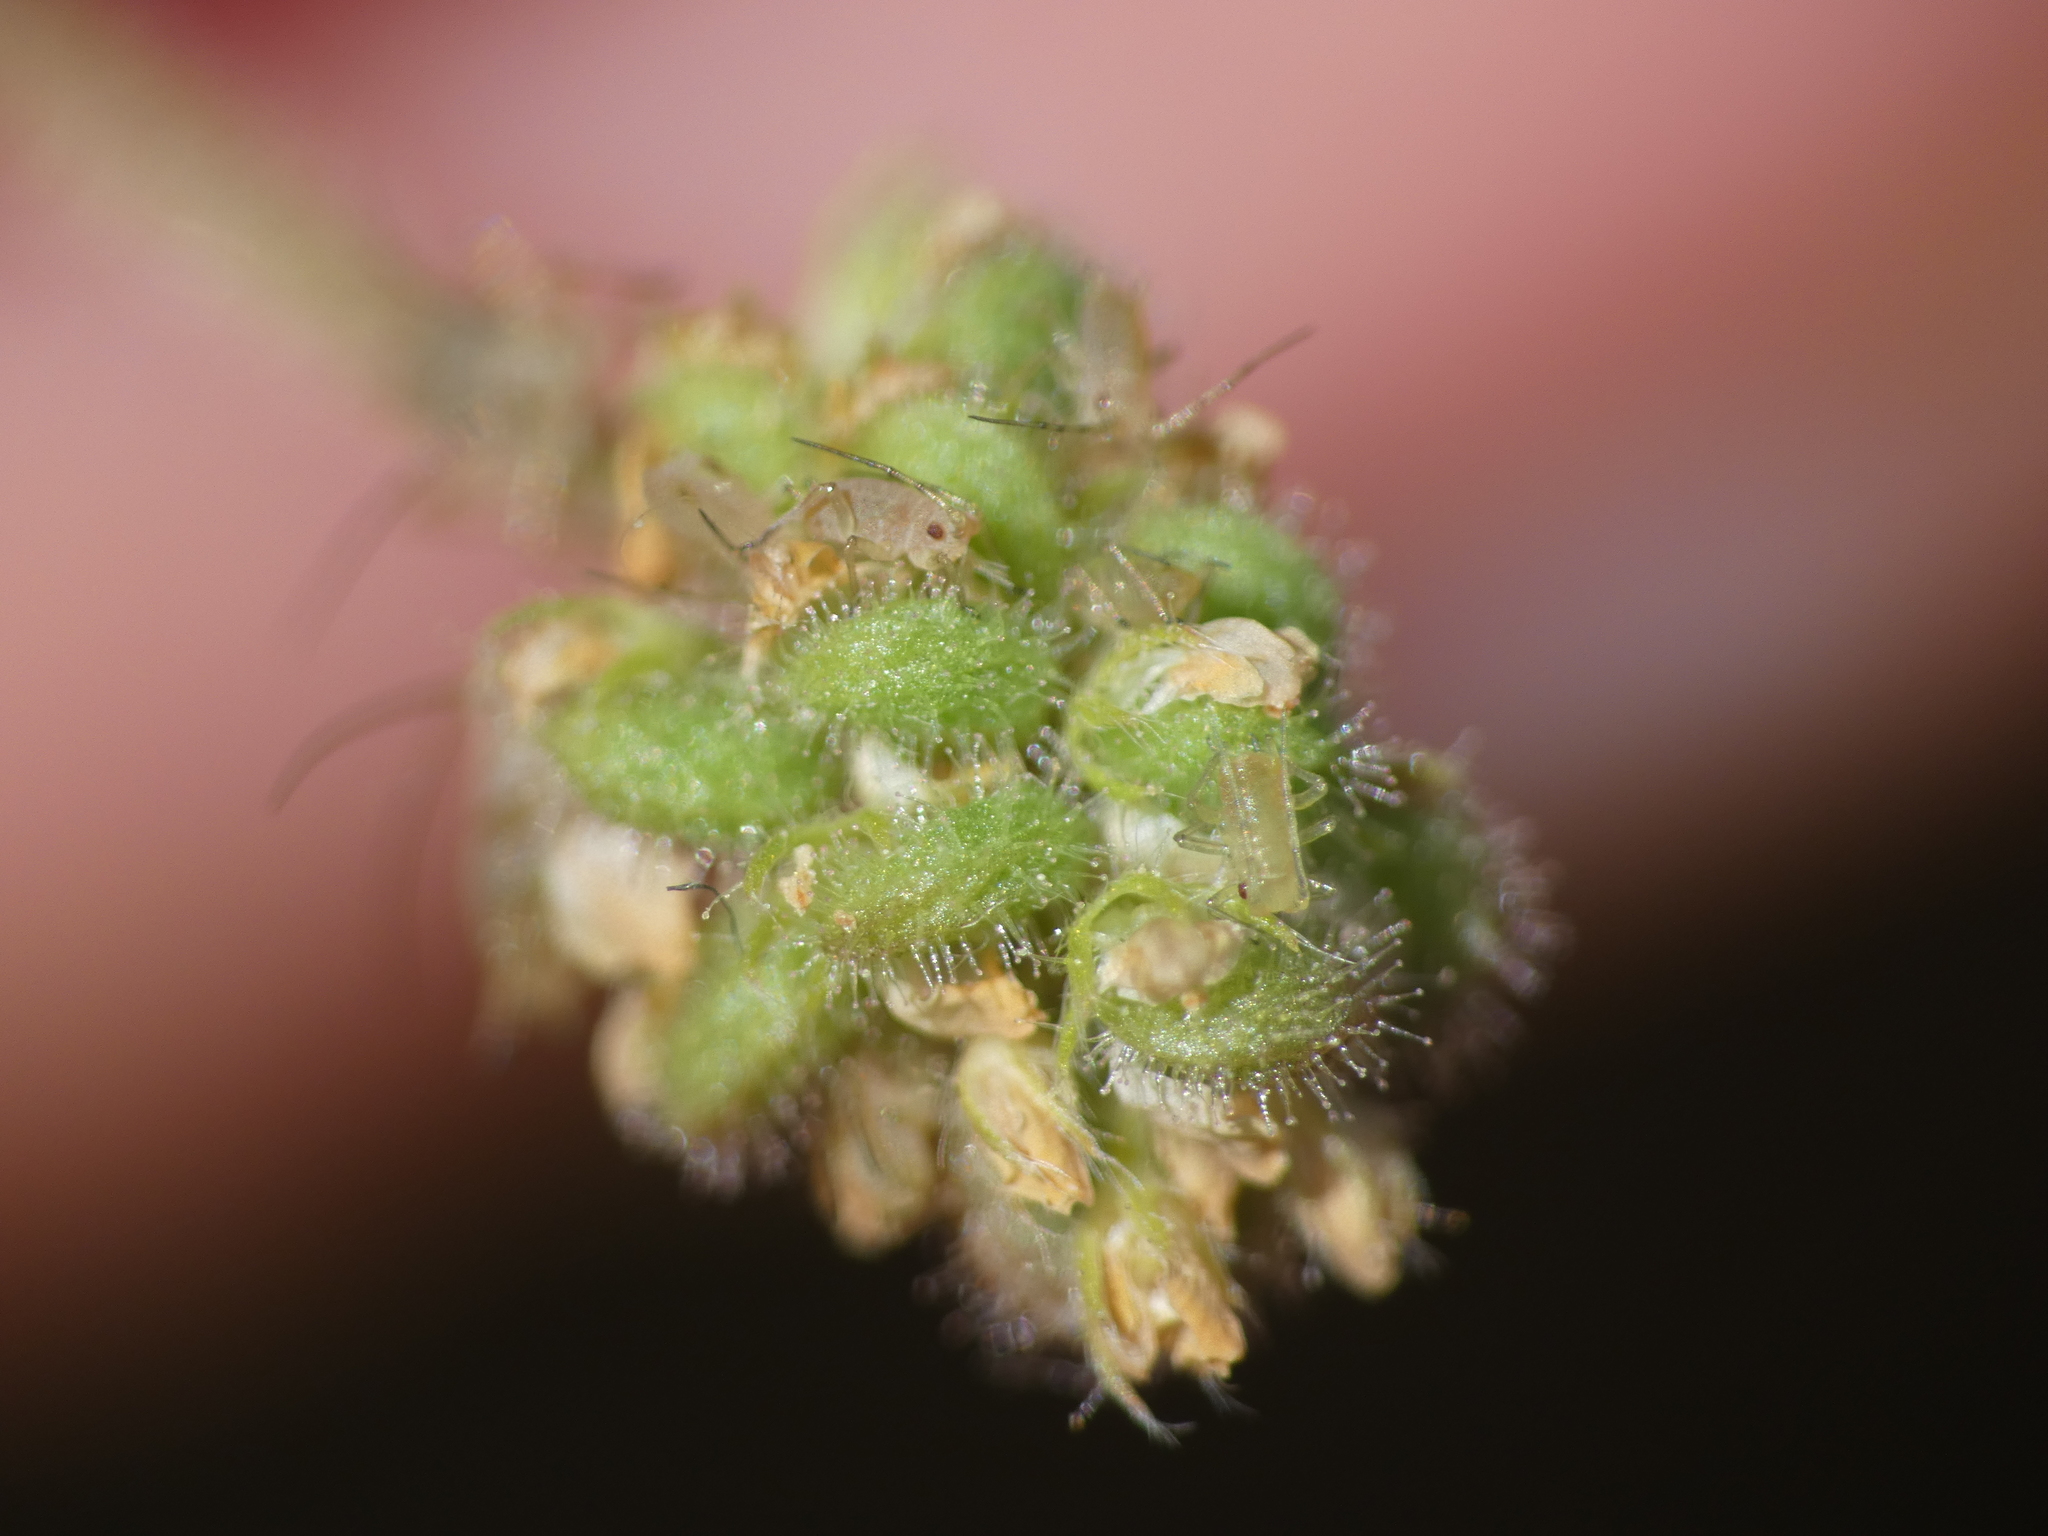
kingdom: Plantae
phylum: Tracheophyta
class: Magnoliopsida
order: Fabales
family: Fabaceae
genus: Medicago
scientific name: Medicago lupulina
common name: Black medick
